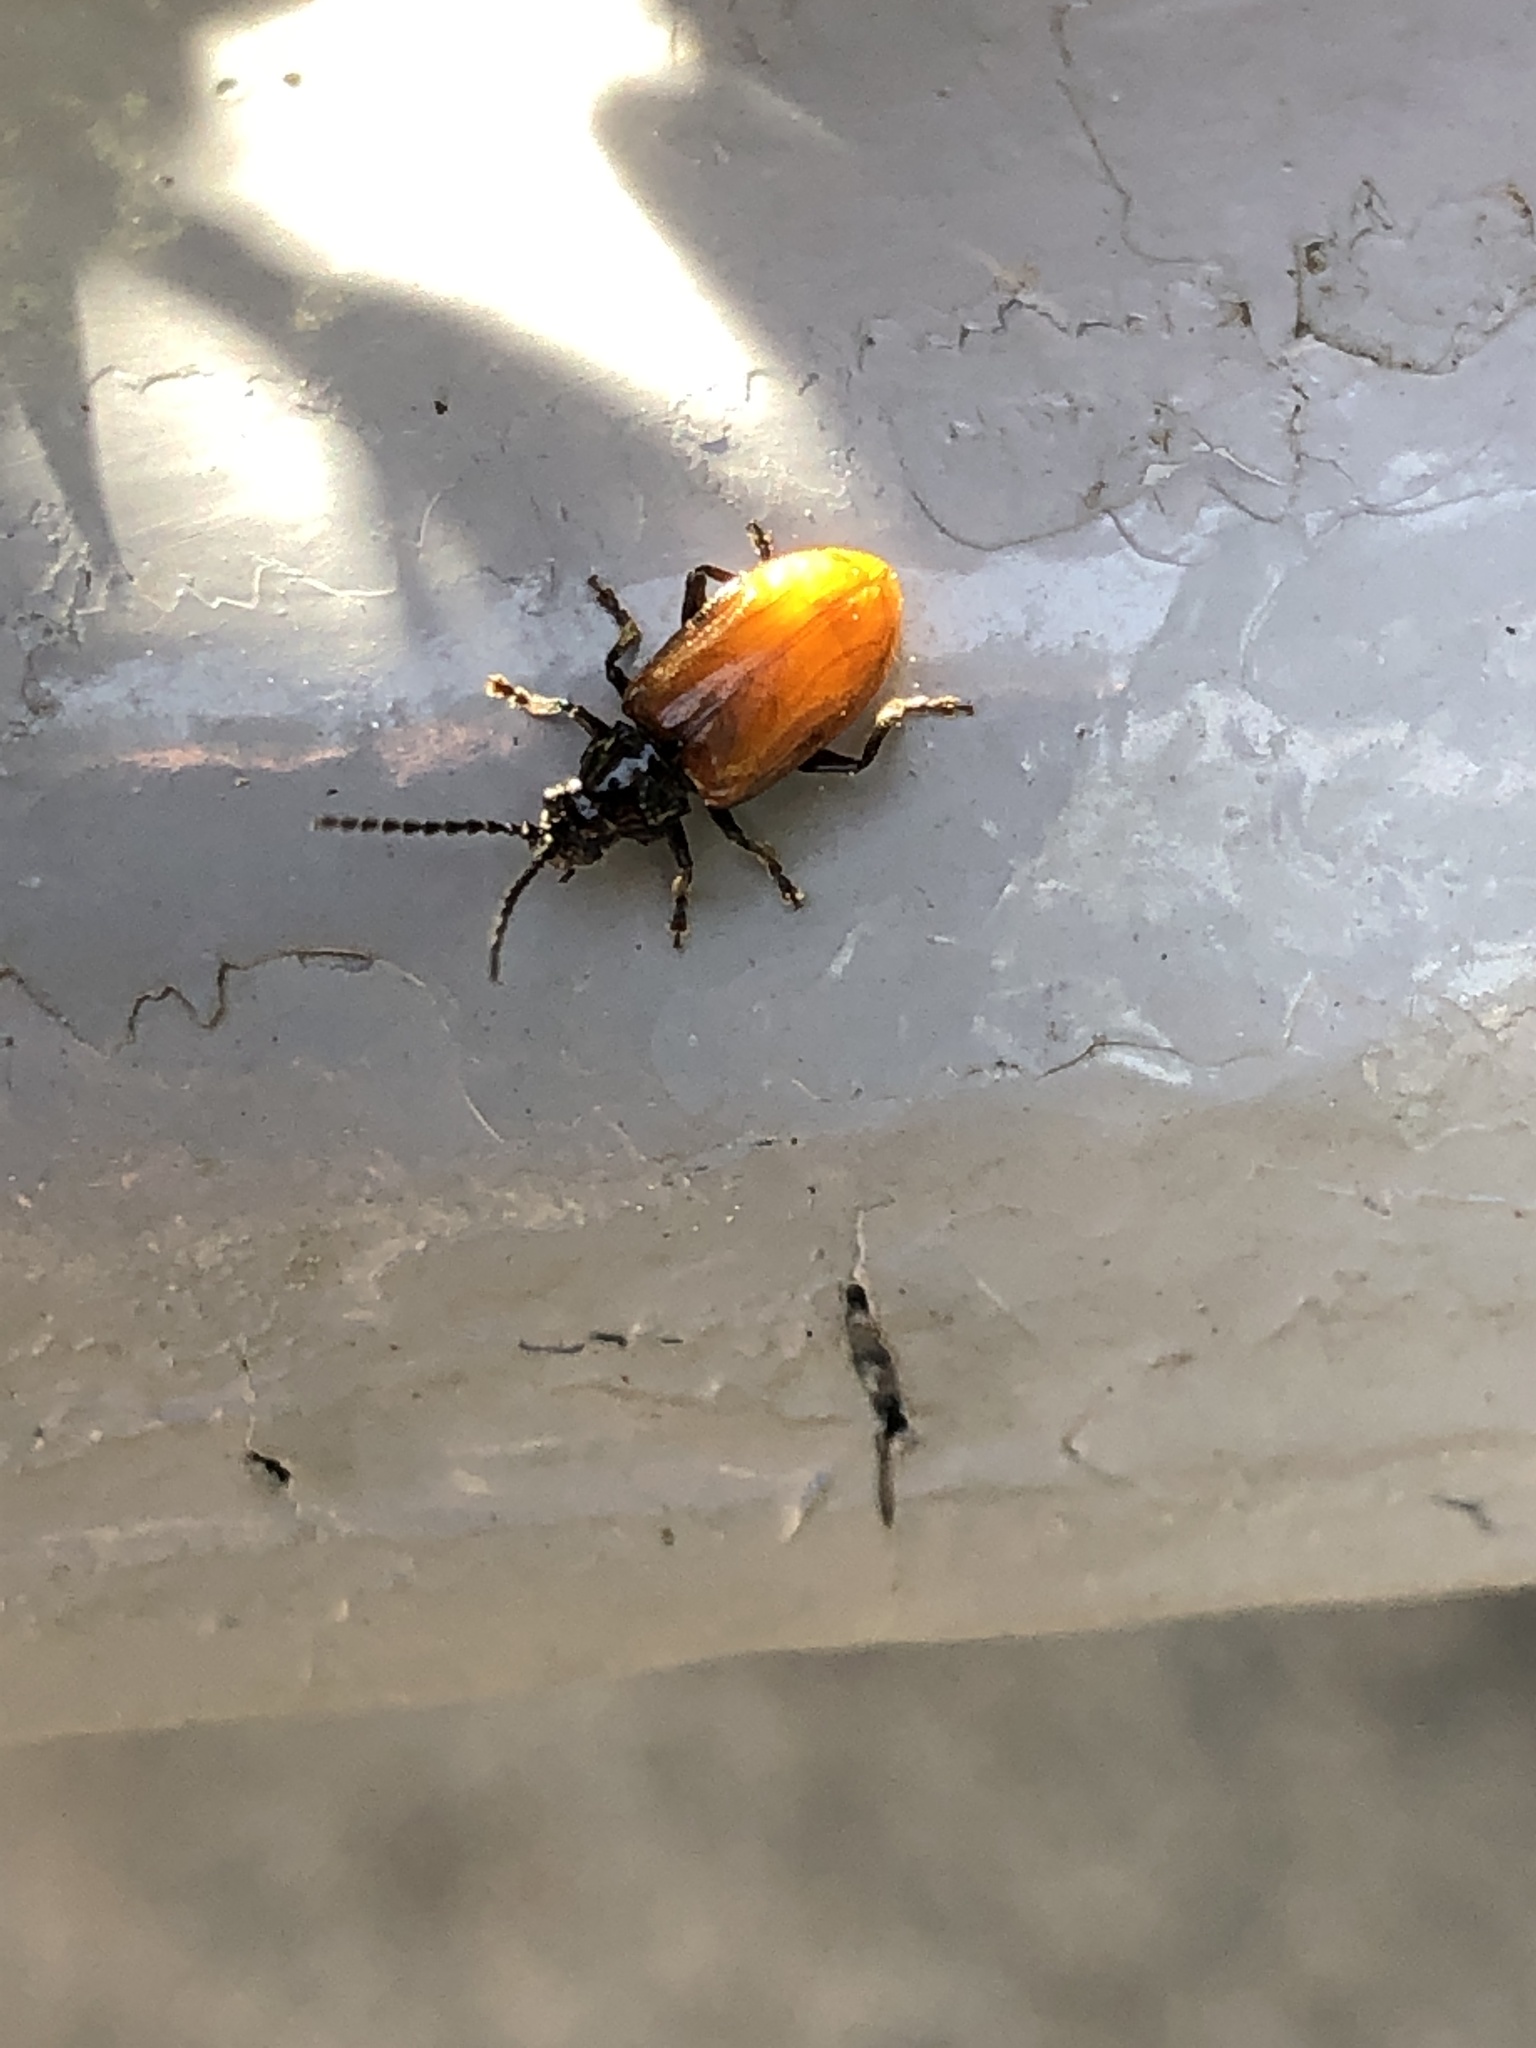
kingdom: Animalia
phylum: Arthropoda
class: Insecta
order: Coleoptera
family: Chrysomelidae
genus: Phygasia
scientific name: Phygasia fulvipennis
